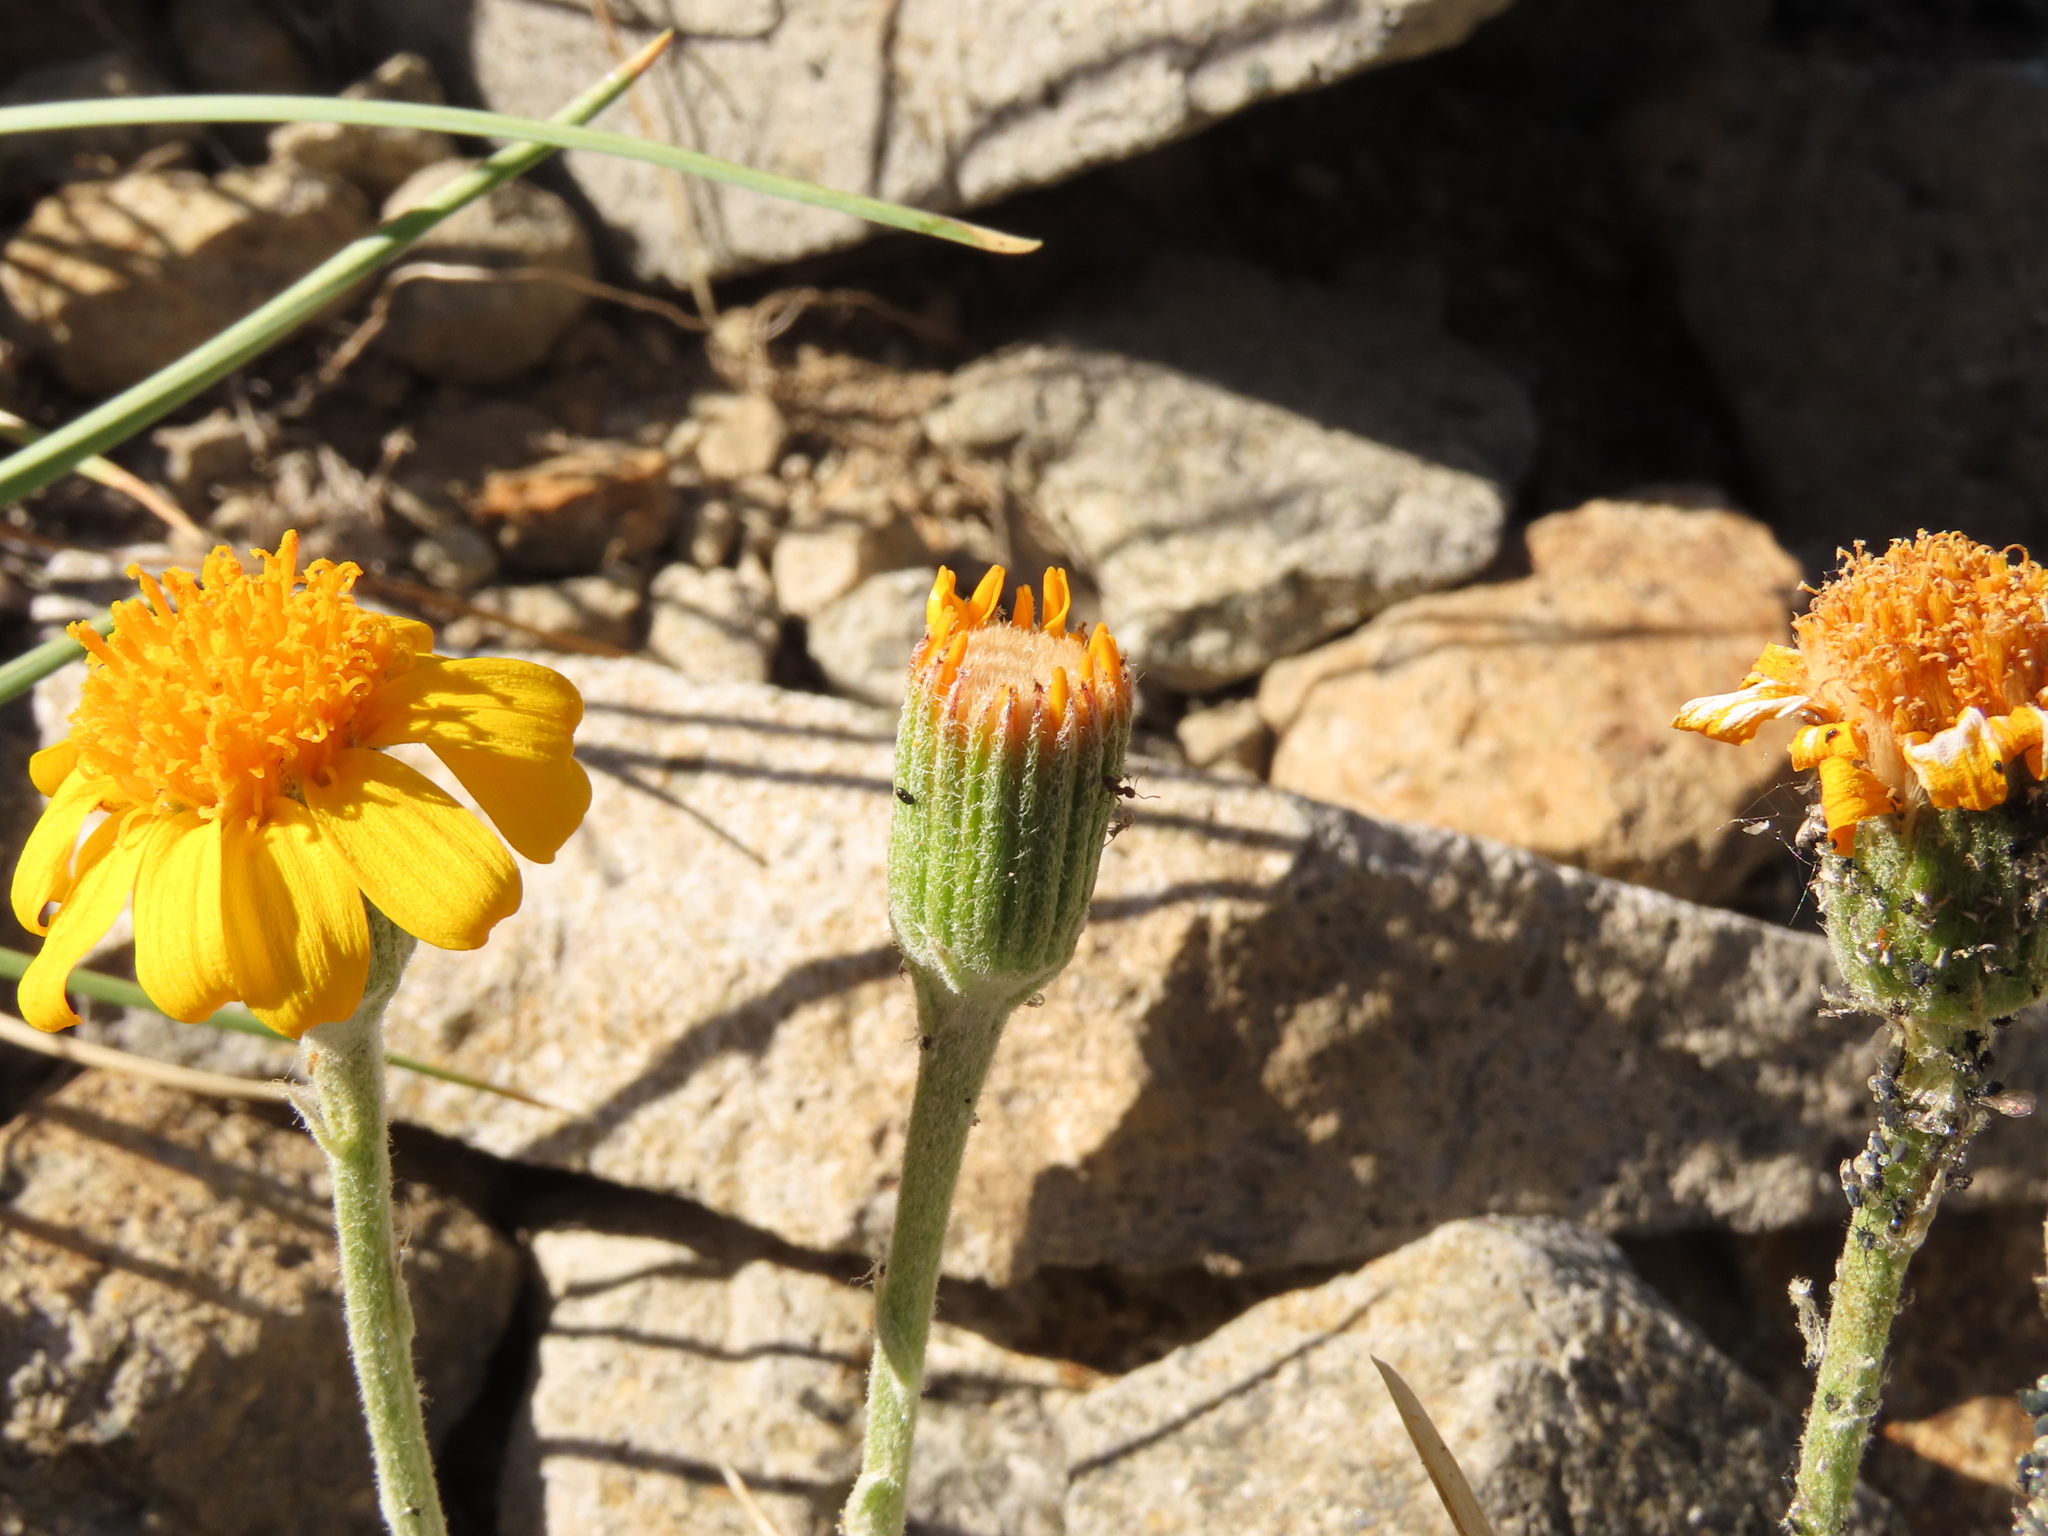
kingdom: Plantae
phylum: Tracheophyta
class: Magnoliopsida
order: Asterales
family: Asteraceae
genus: Senecio
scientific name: Senecio chilensis
